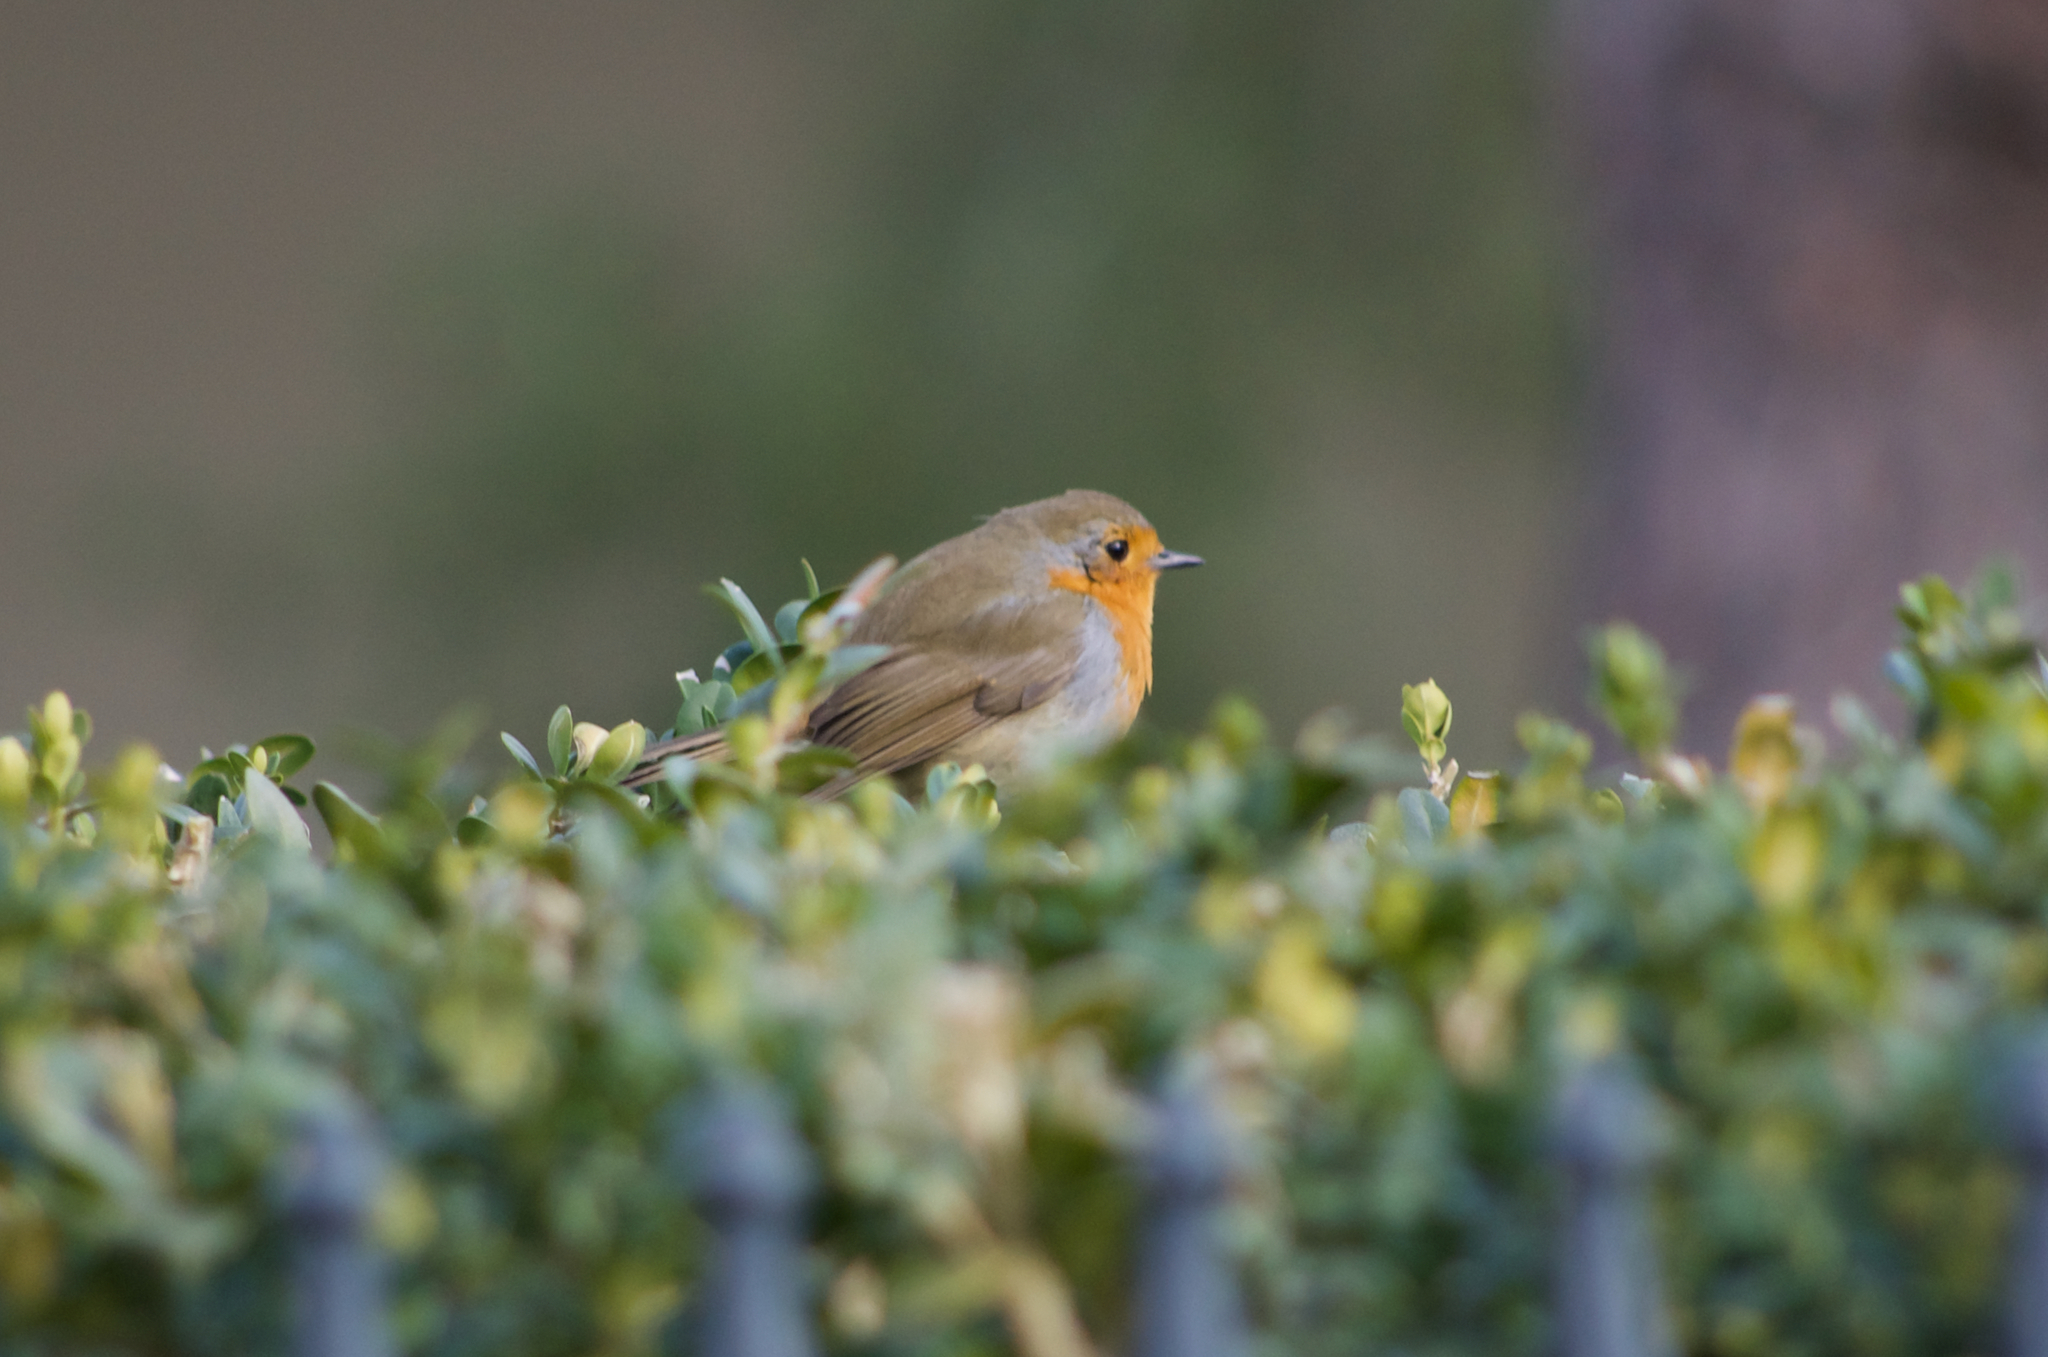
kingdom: Animalia
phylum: Chordata
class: Aves
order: Passeriformes
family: Muscicapidae
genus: Erithacus
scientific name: Erithacus rubecula
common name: European robin
